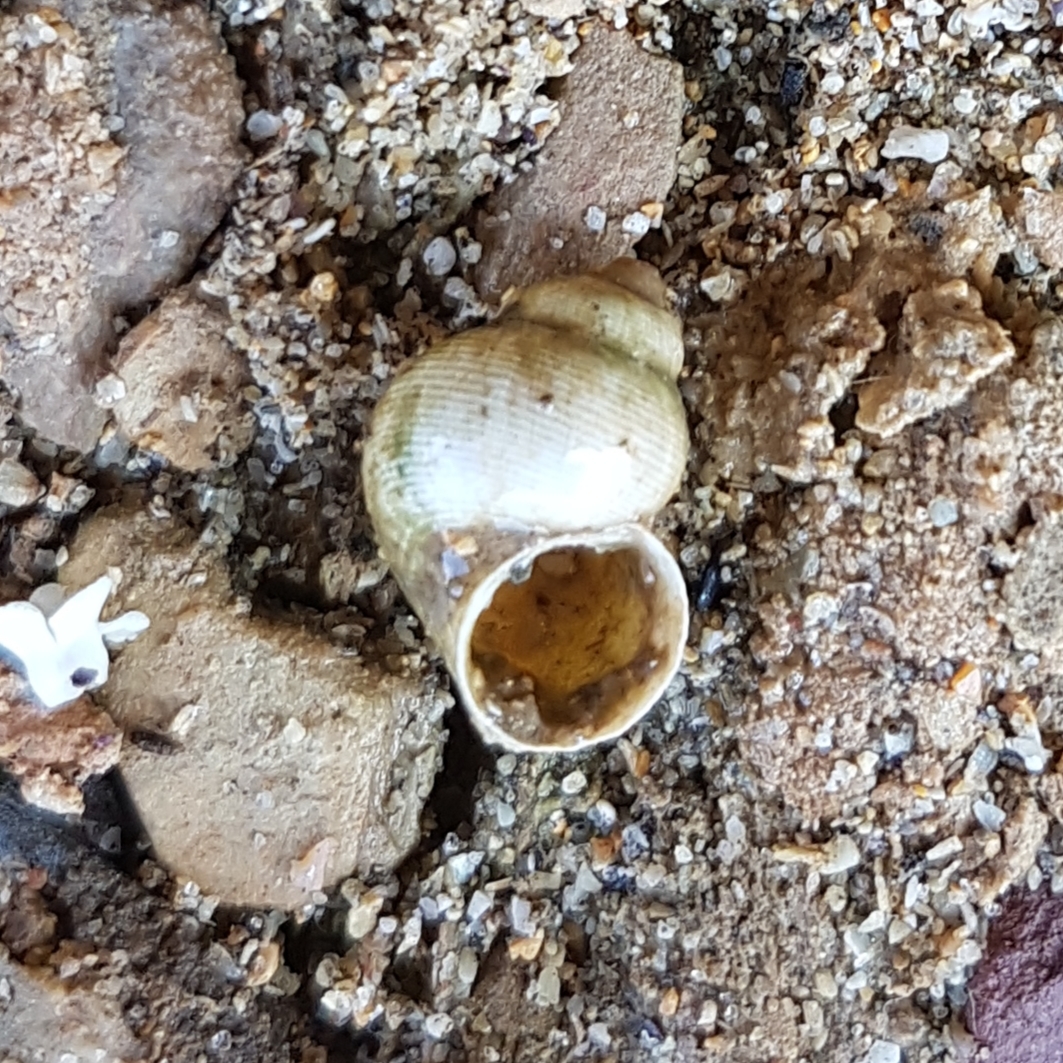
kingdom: Animalia
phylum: Mollusca
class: Gastropoda
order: Littorinimorpha
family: Pomatiidae
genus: Pomatias
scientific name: Pomatias elegans
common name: Red-mouthed snail
